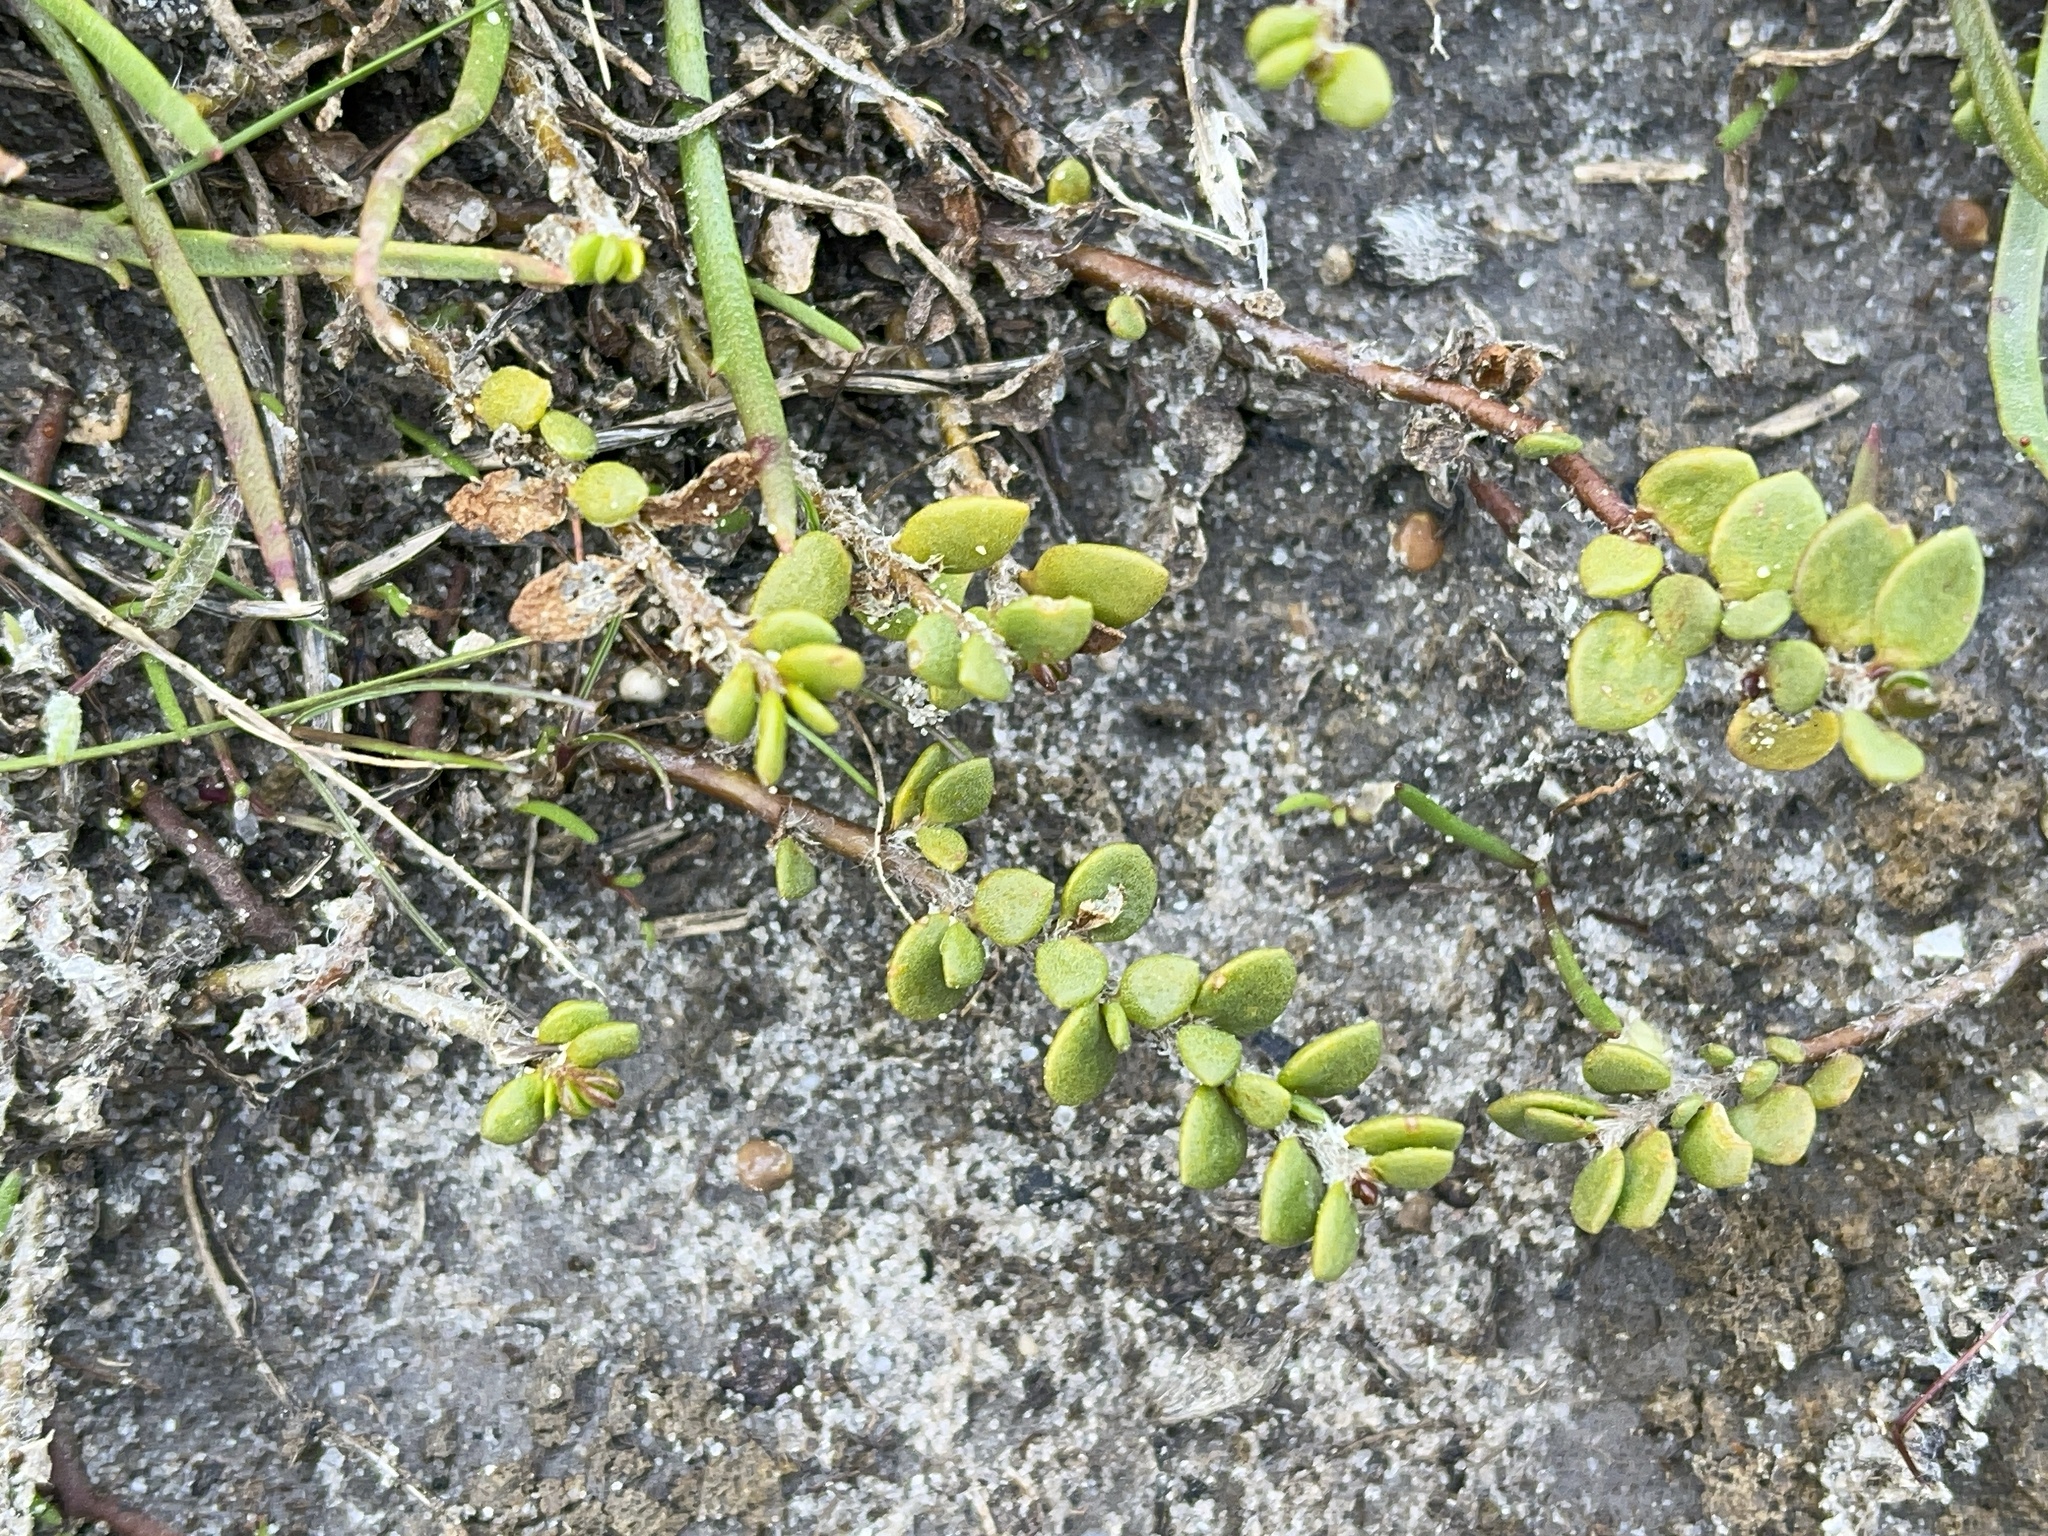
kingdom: Plantae
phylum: Tracheophyta
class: Magnoliopsida
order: Solanales
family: Convolvulaceae
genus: Wilsonia
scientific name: Wilsonia rotundifolia
